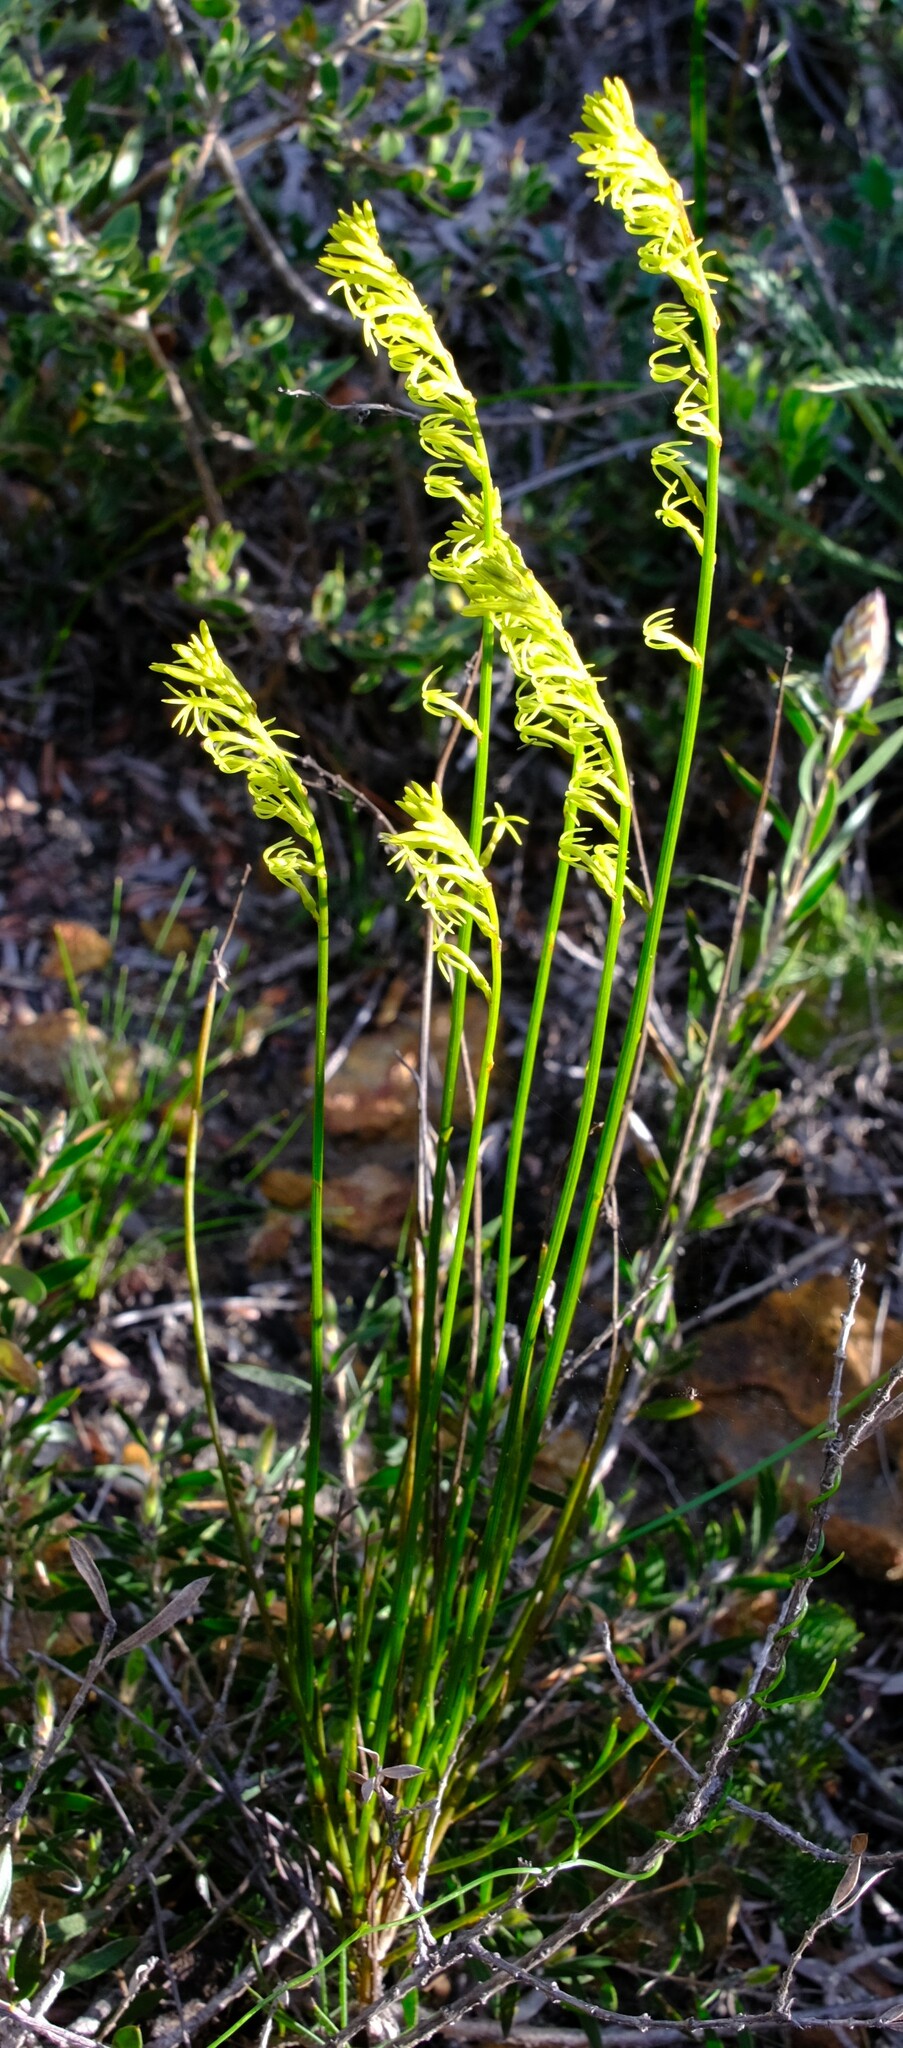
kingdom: Plantae
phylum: Tracheophyta
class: Magnoliopsida
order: Celastrales
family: Celastraceae
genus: Tripterococcus
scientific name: Tripterococcus brunonis
